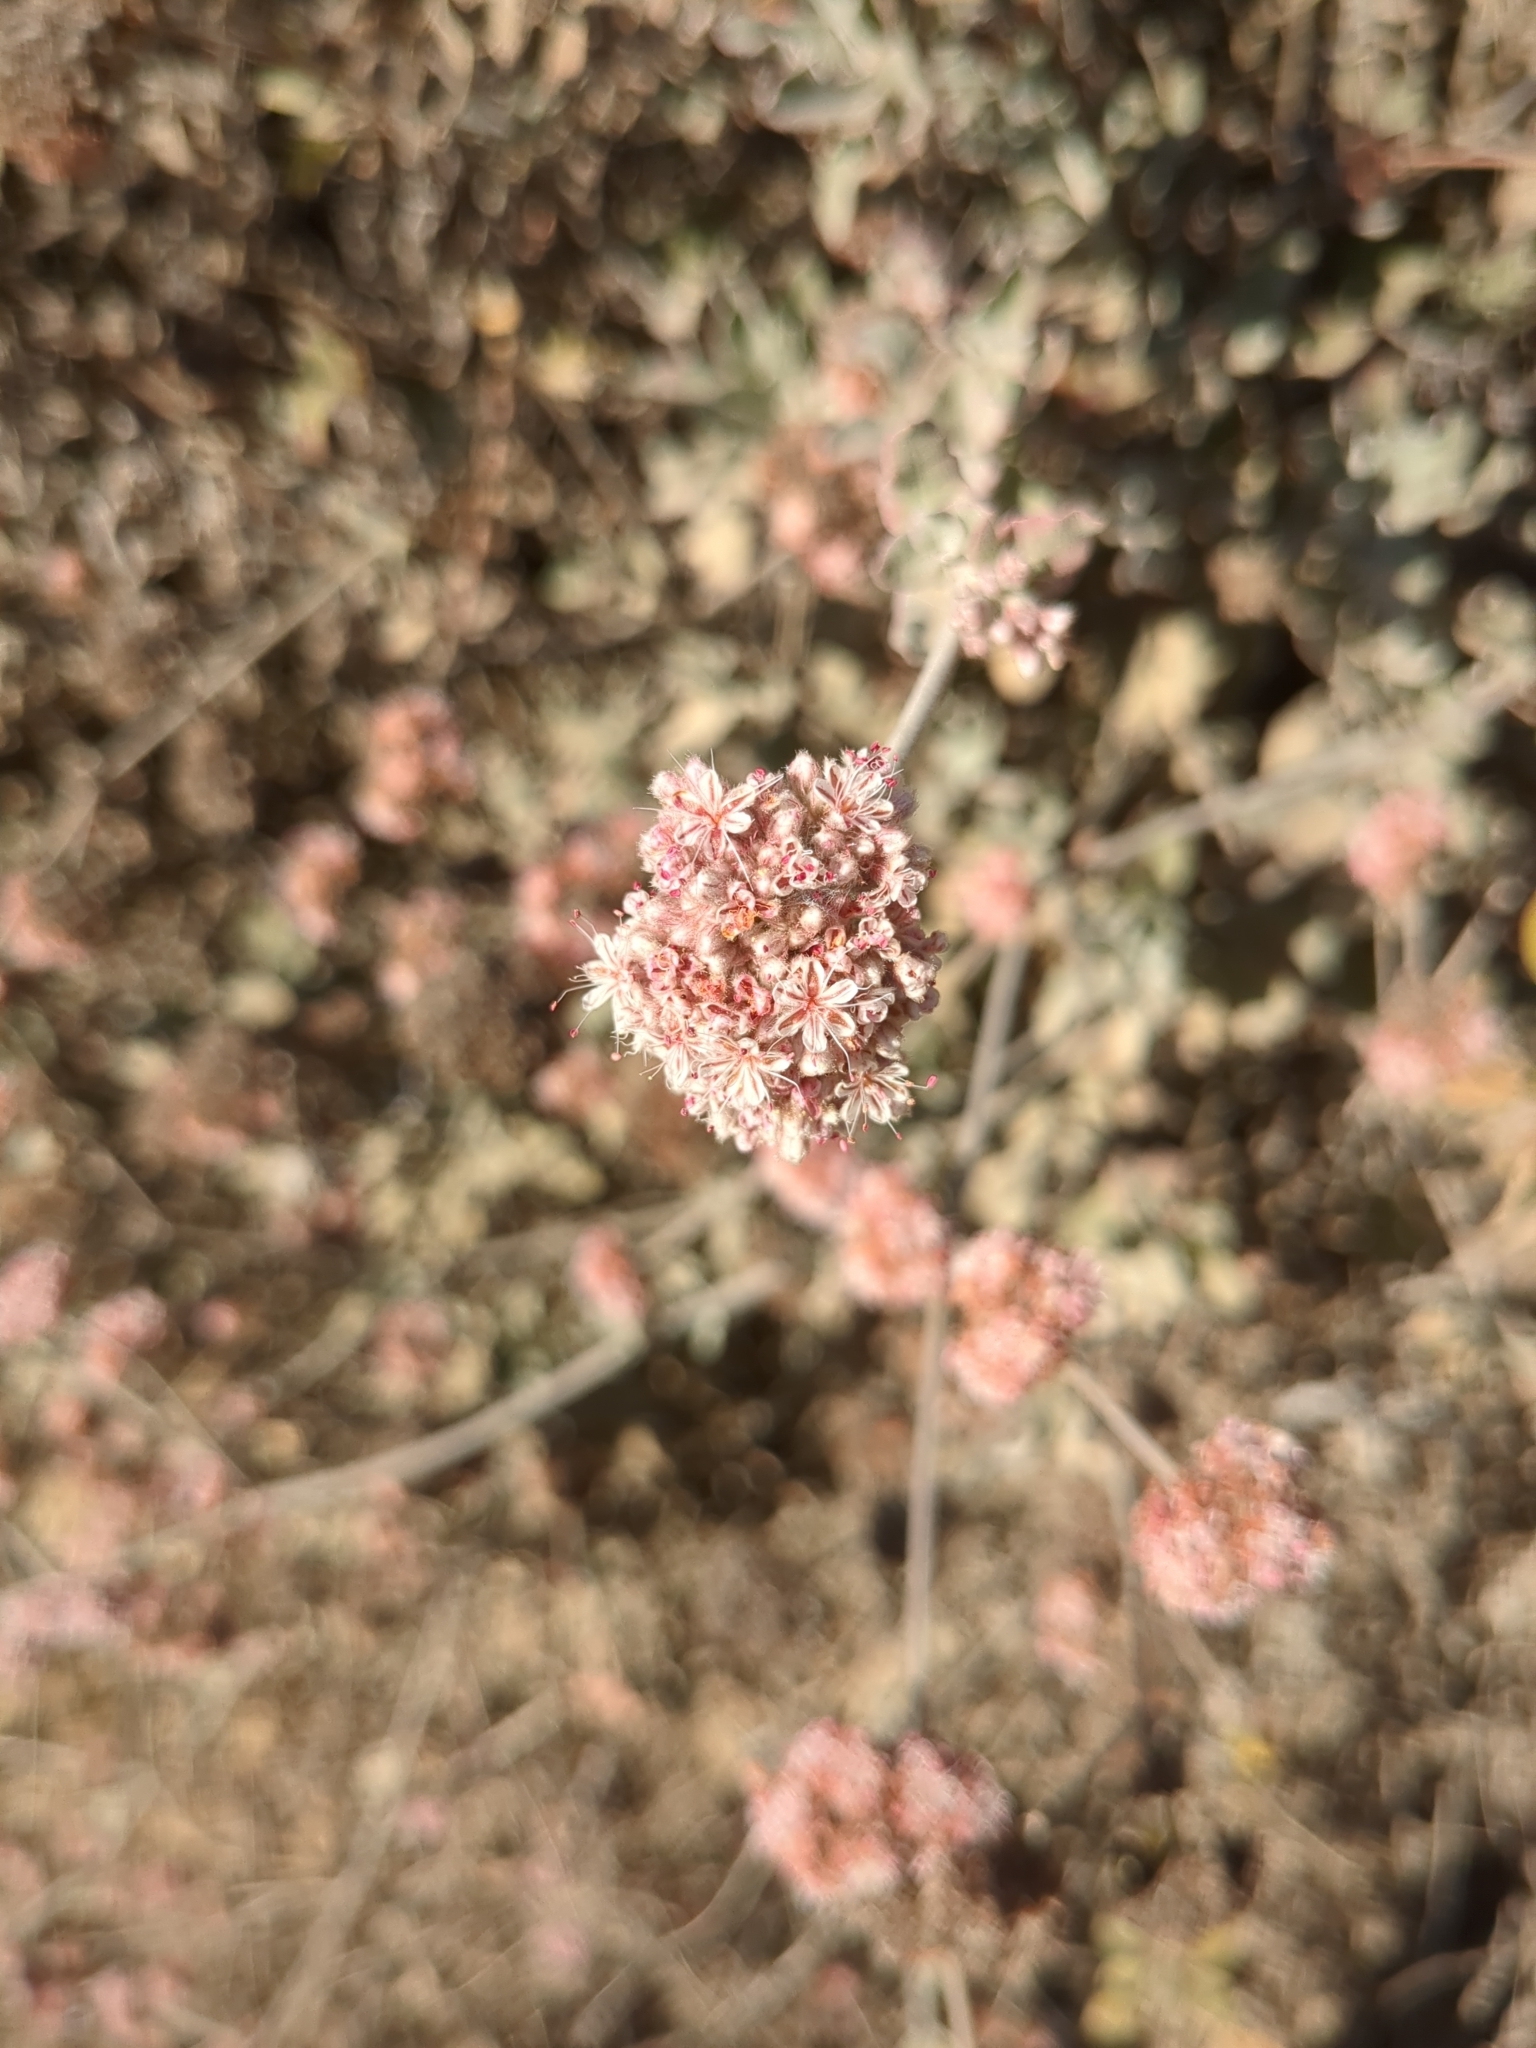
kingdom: Plantae
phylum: Tracheophyta
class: Magnoliopsida
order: Caryophyllales
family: Polygonaceae
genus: Eriogonum
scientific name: Eriogonum cinereum
